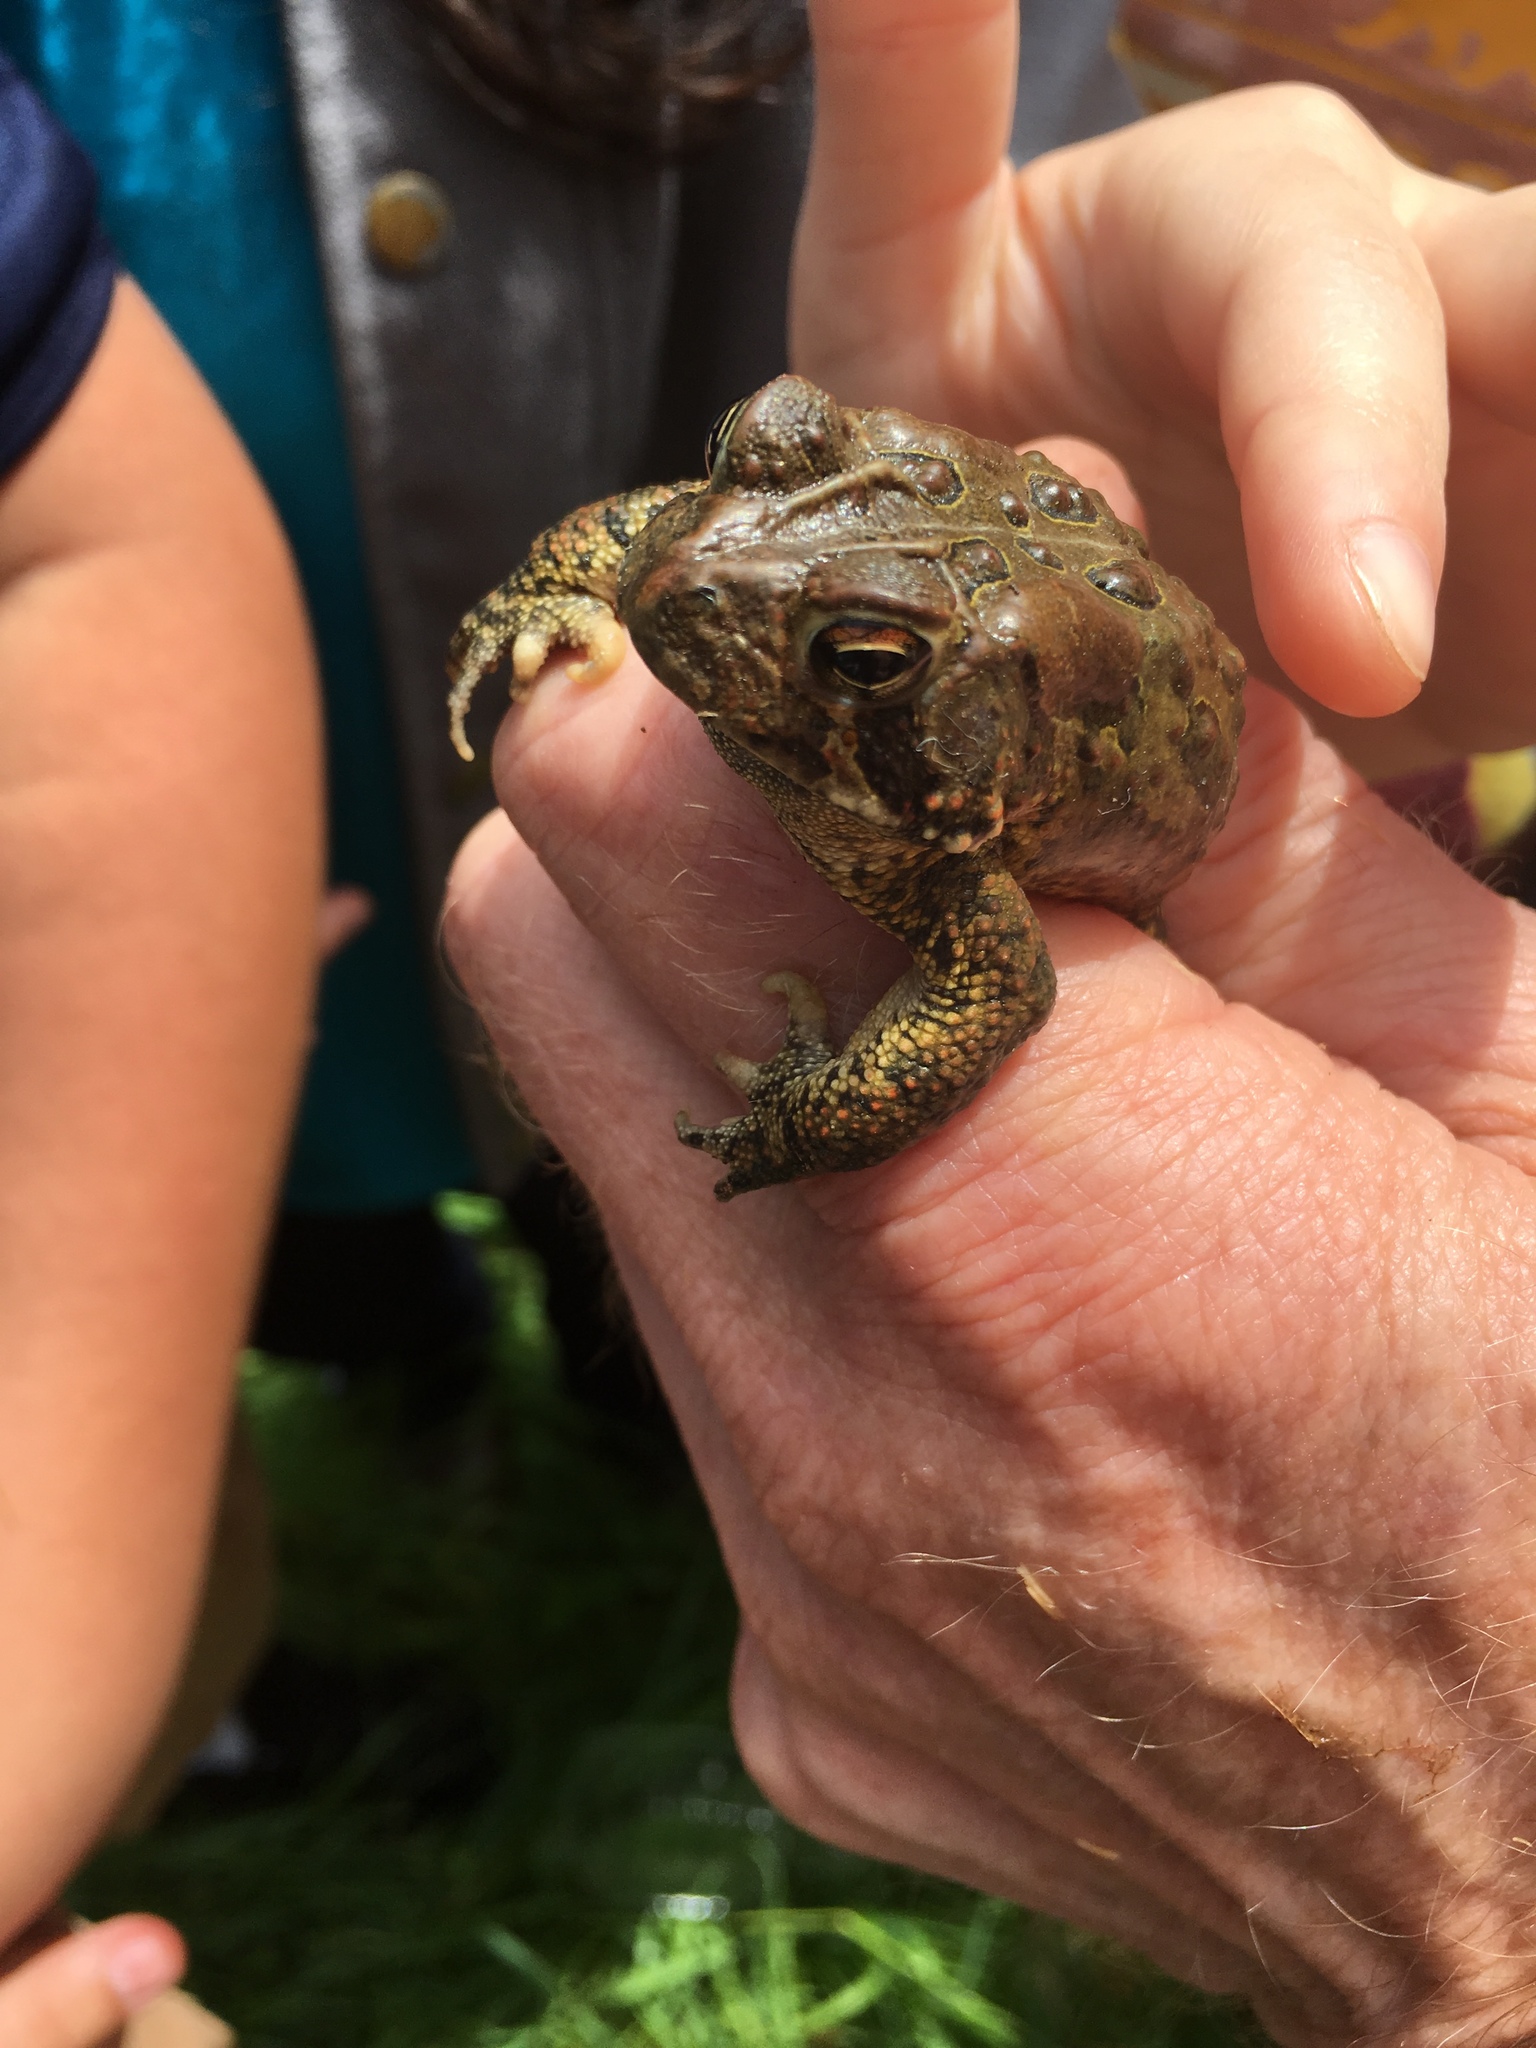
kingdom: Animalia
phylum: Chordata
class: Amphibia
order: Anura
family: Bufonidae
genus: Anaxyrus
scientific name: Anaxyrus americanus
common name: American toad
